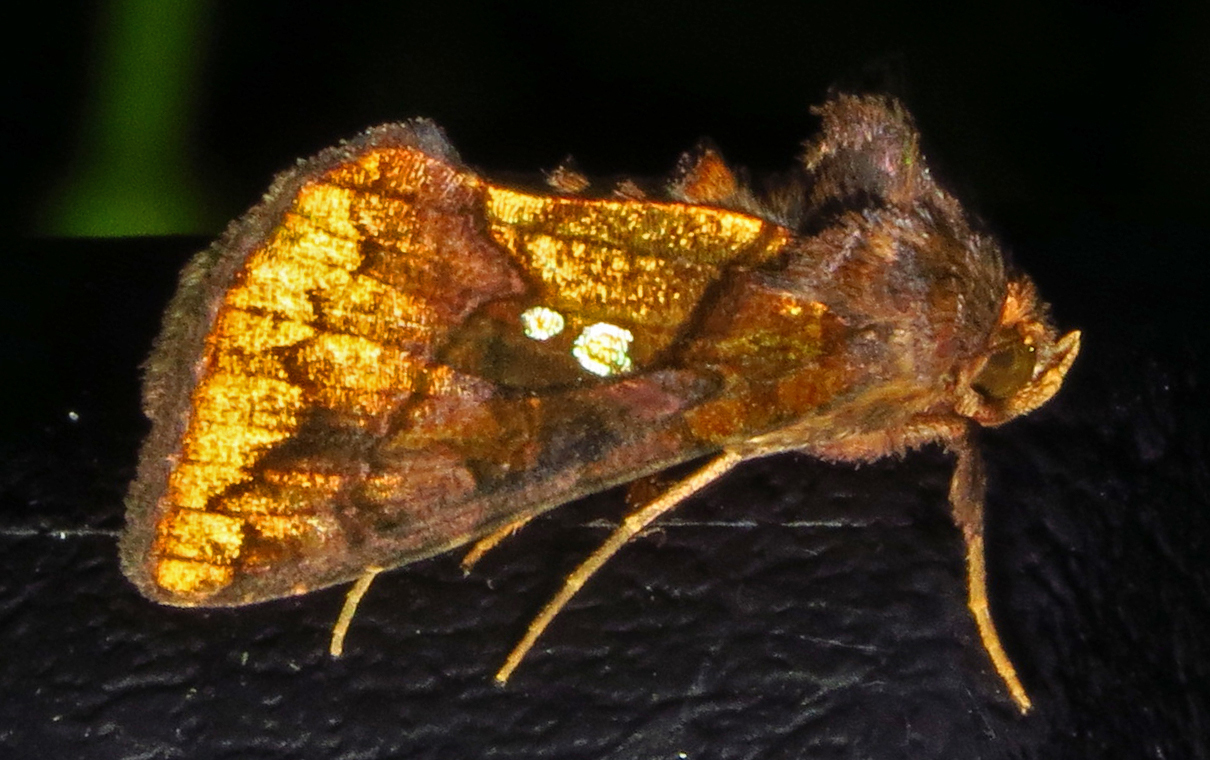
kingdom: Animalia
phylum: Arthropoda
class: Insecta
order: Lepidoptera
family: Noctuidae
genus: Argyrogramma
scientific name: Argyrogramma verruca
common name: Golden looper moth
